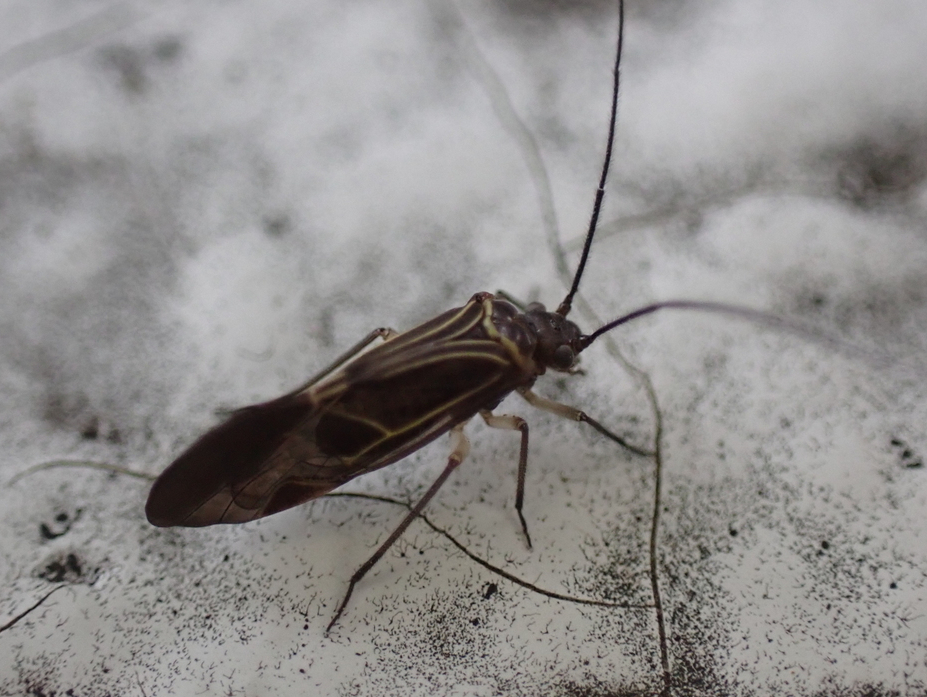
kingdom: Animalia
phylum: Arthropoda
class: Insecta
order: Psocodea
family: Psocidae
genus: Cerastipsocus
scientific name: Cerastipsocus venosus
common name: Tree cattle
